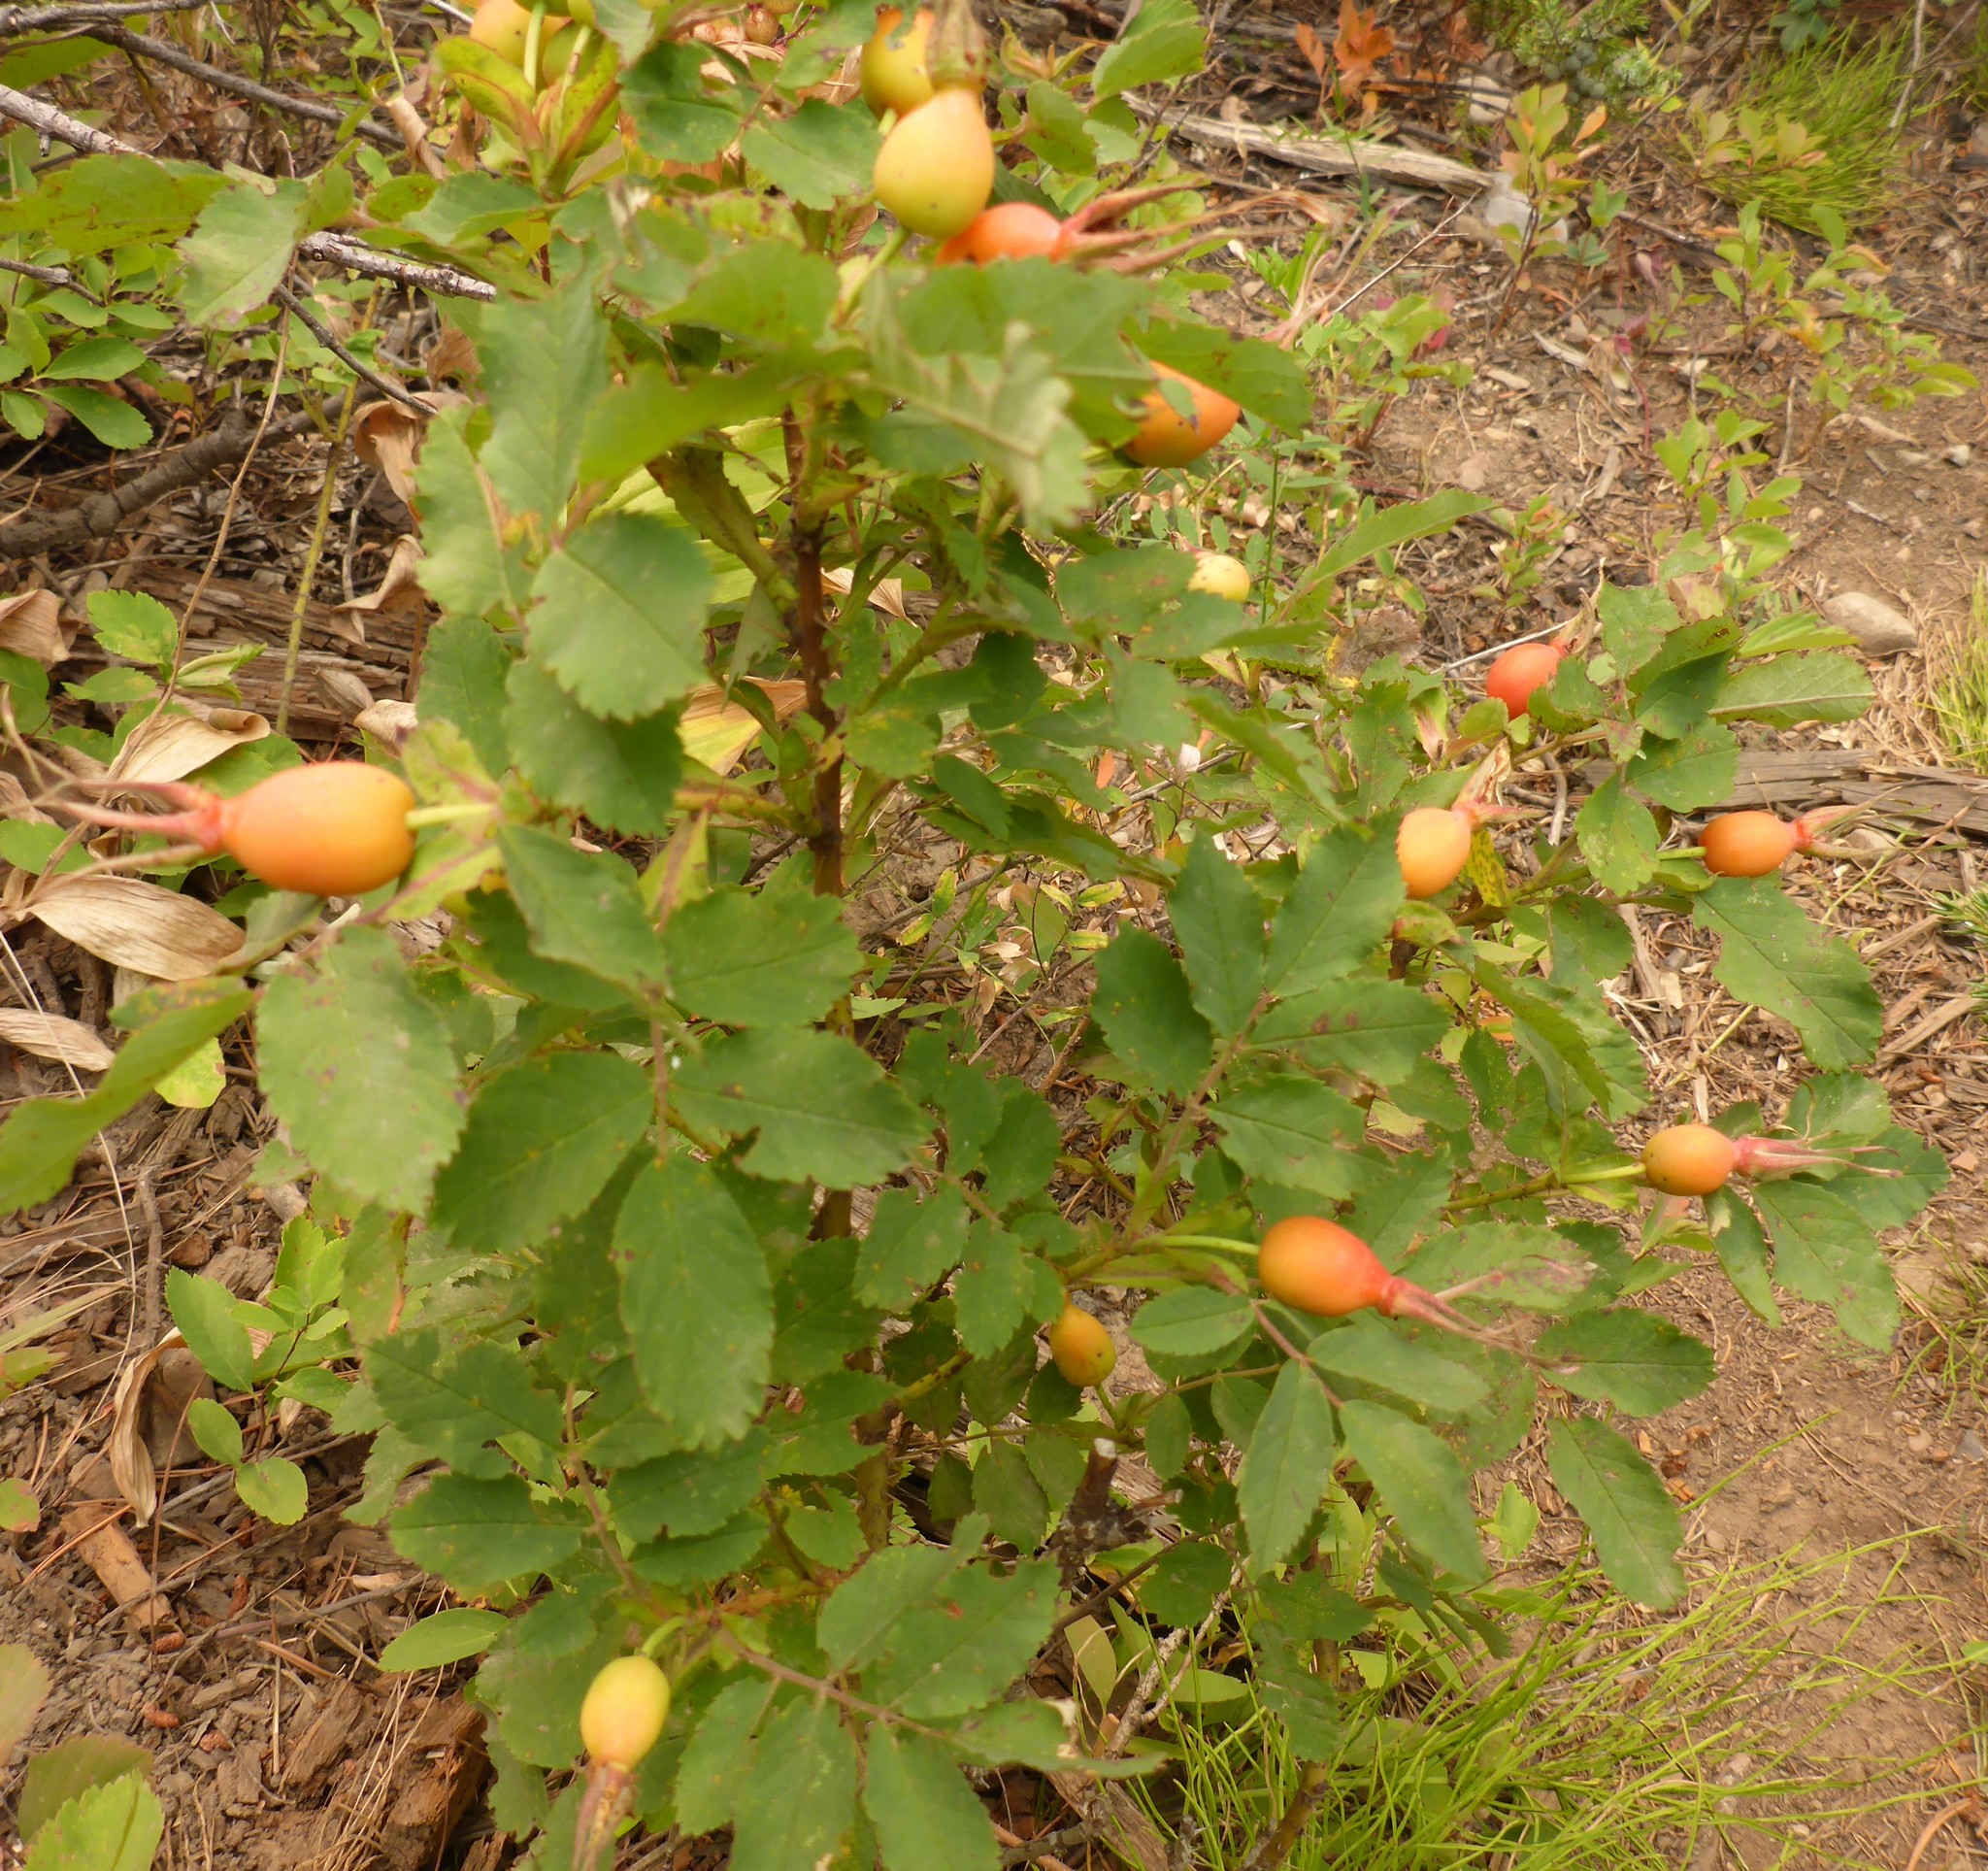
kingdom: Plantae
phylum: Tracheophyta
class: Magnoliopsida
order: Rosales
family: Rosaceae
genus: Rosa
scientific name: Rosa acicularis
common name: Prickly rose
